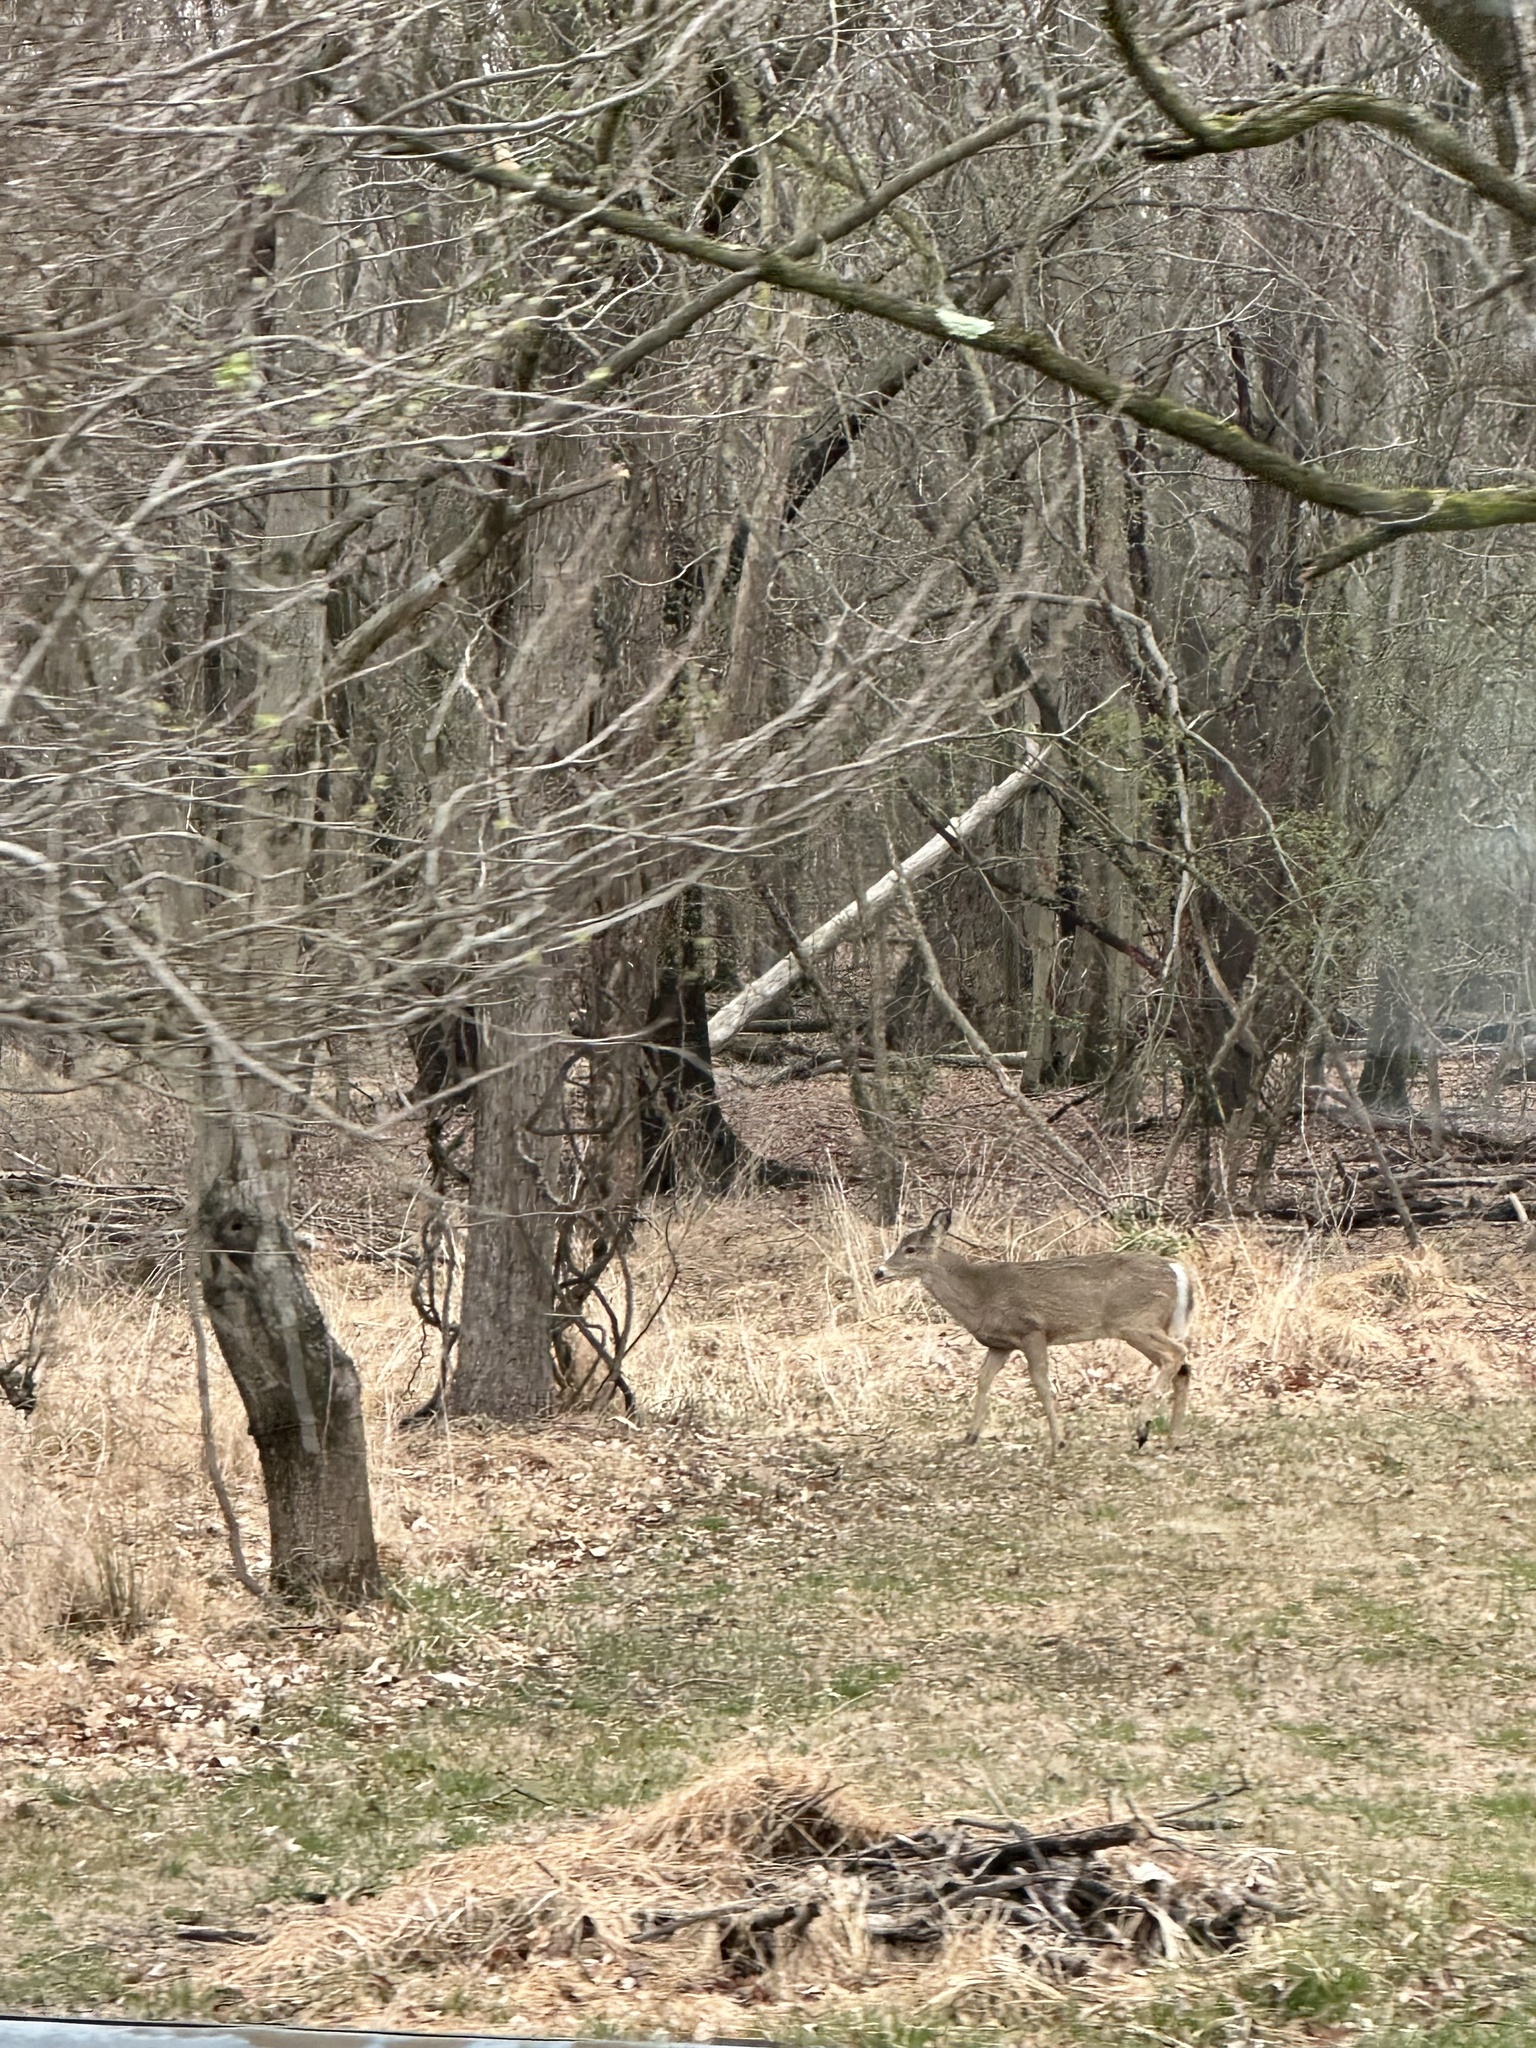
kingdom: Animalia
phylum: Chordata
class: Mammalia
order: Artiodactyla
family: Cervidae
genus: Odocoileus
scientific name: Odocoileus virginianus
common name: White-tailed deer
